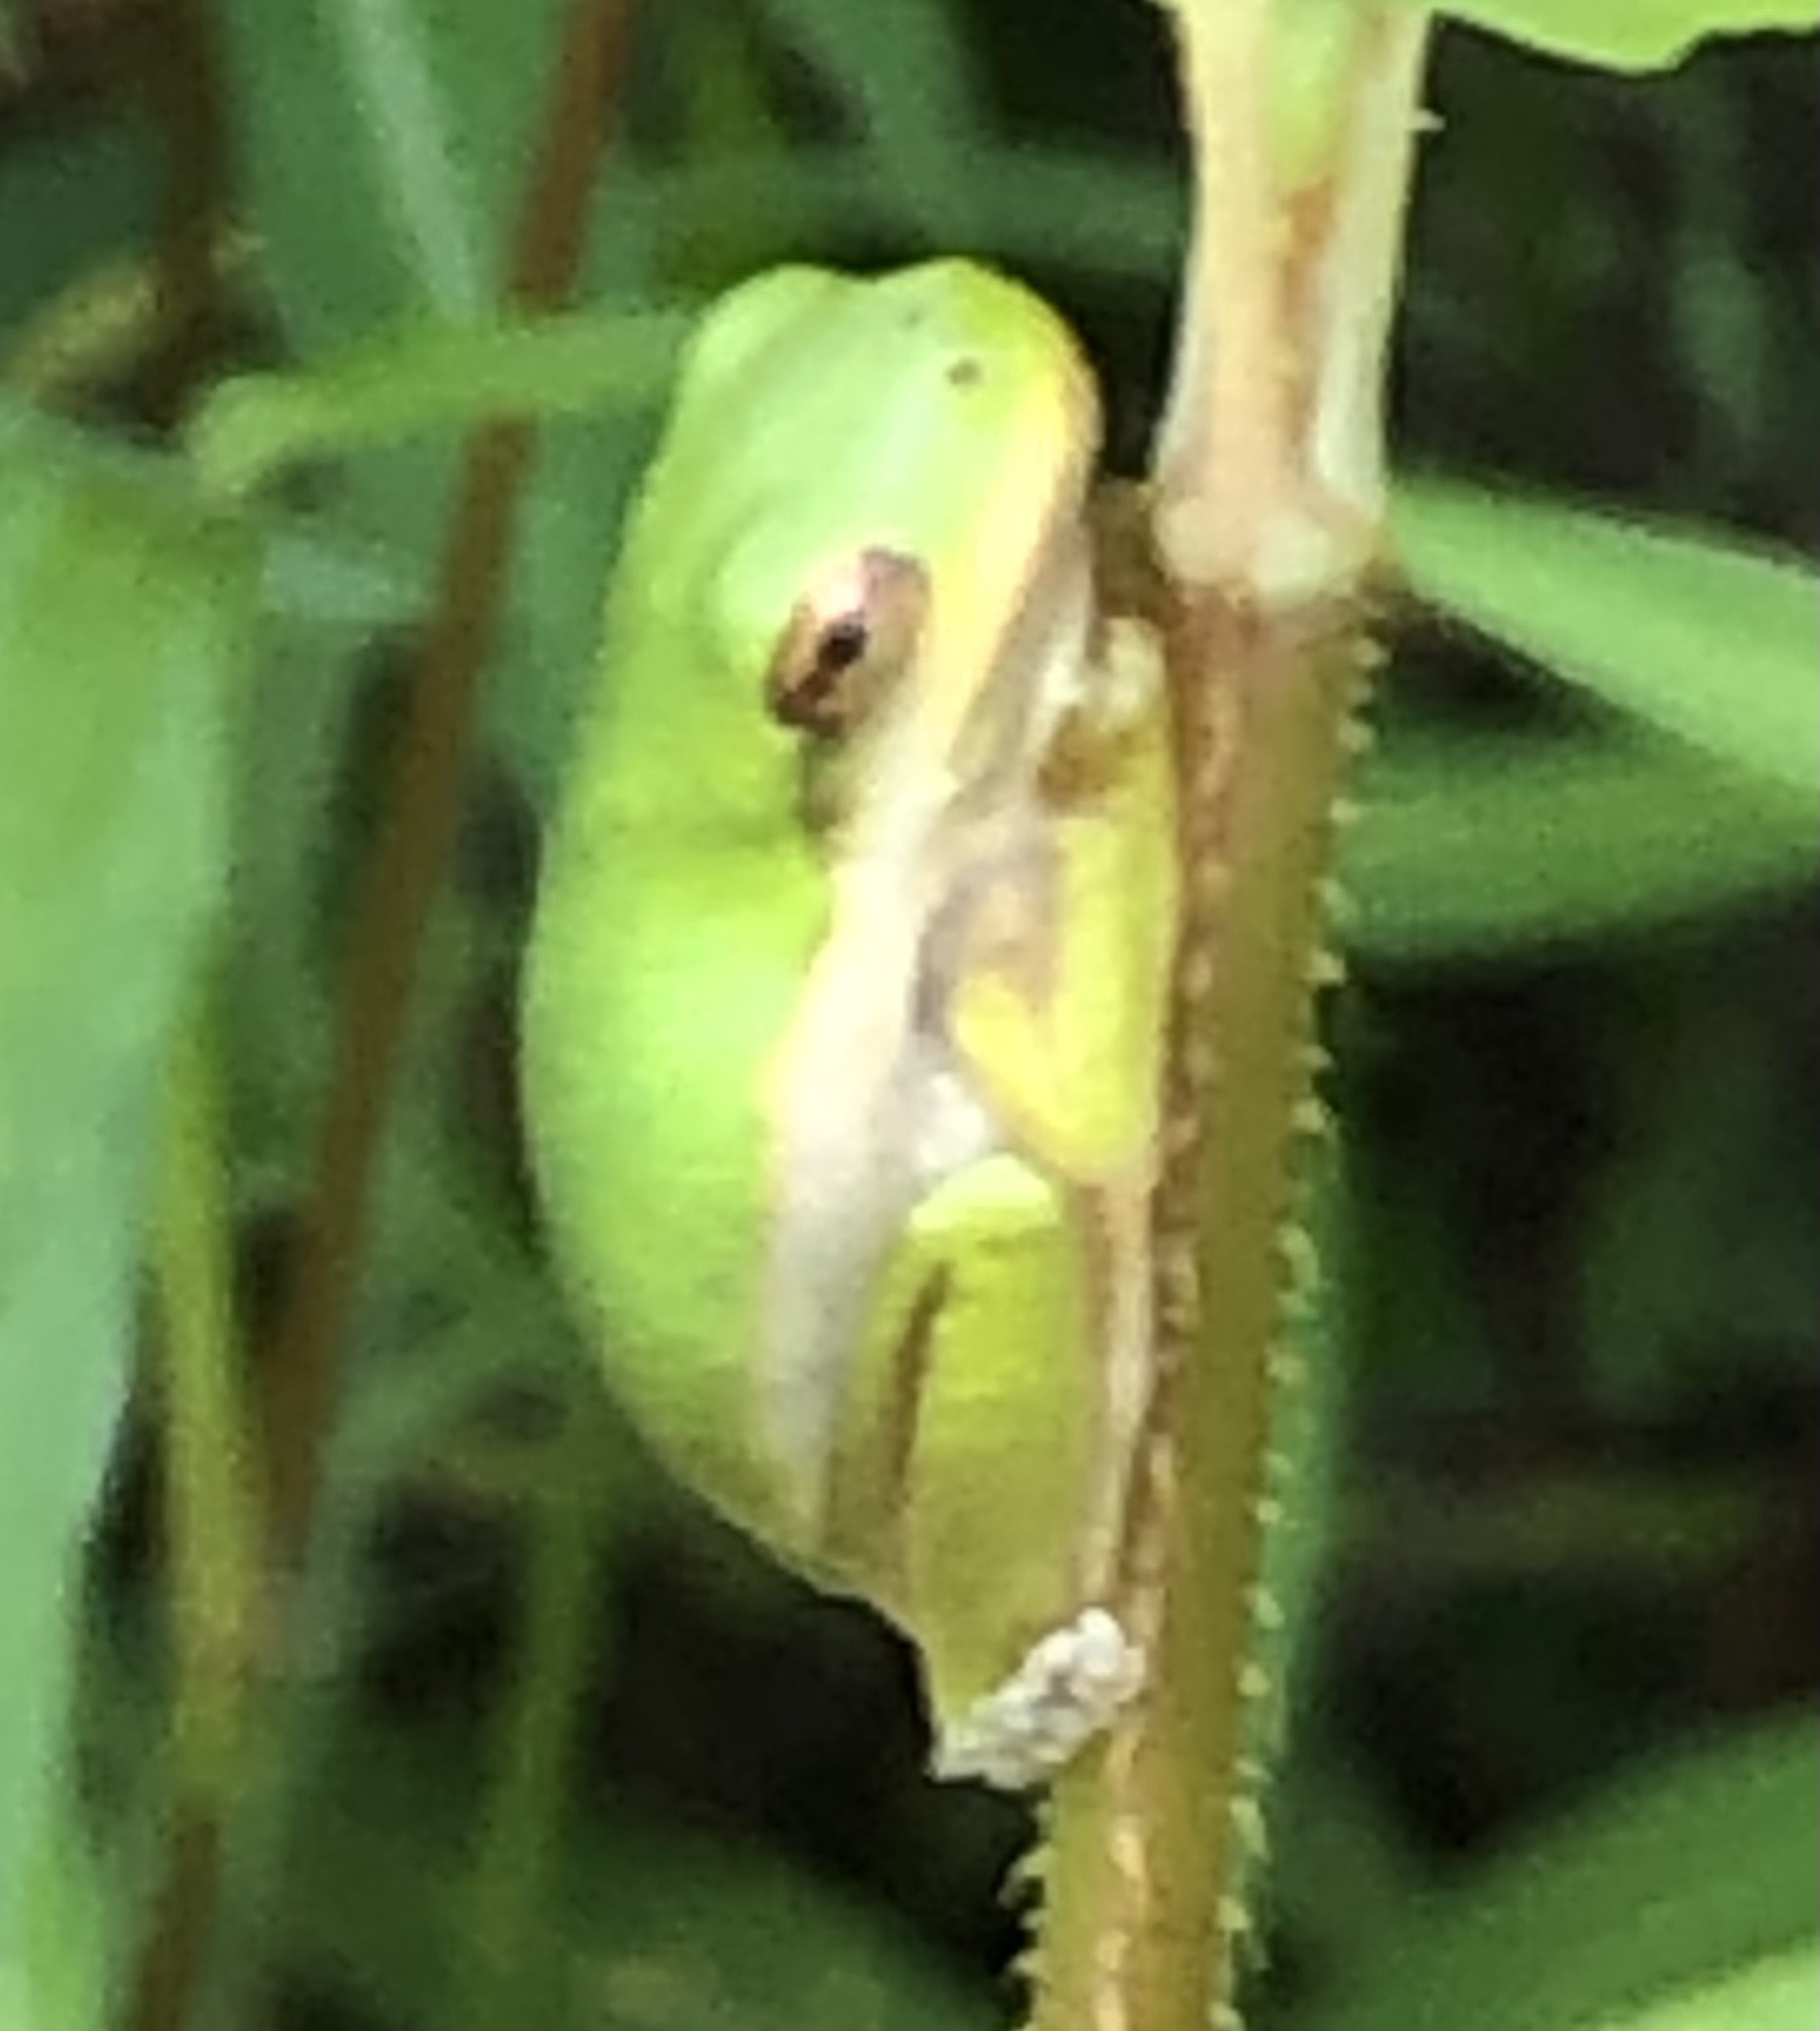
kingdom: Animalia
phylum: Chordata
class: Amphibia
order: Anura
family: Hylidae
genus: Dryophytes
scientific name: Dryophytes cinereus
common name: Green treefrog
